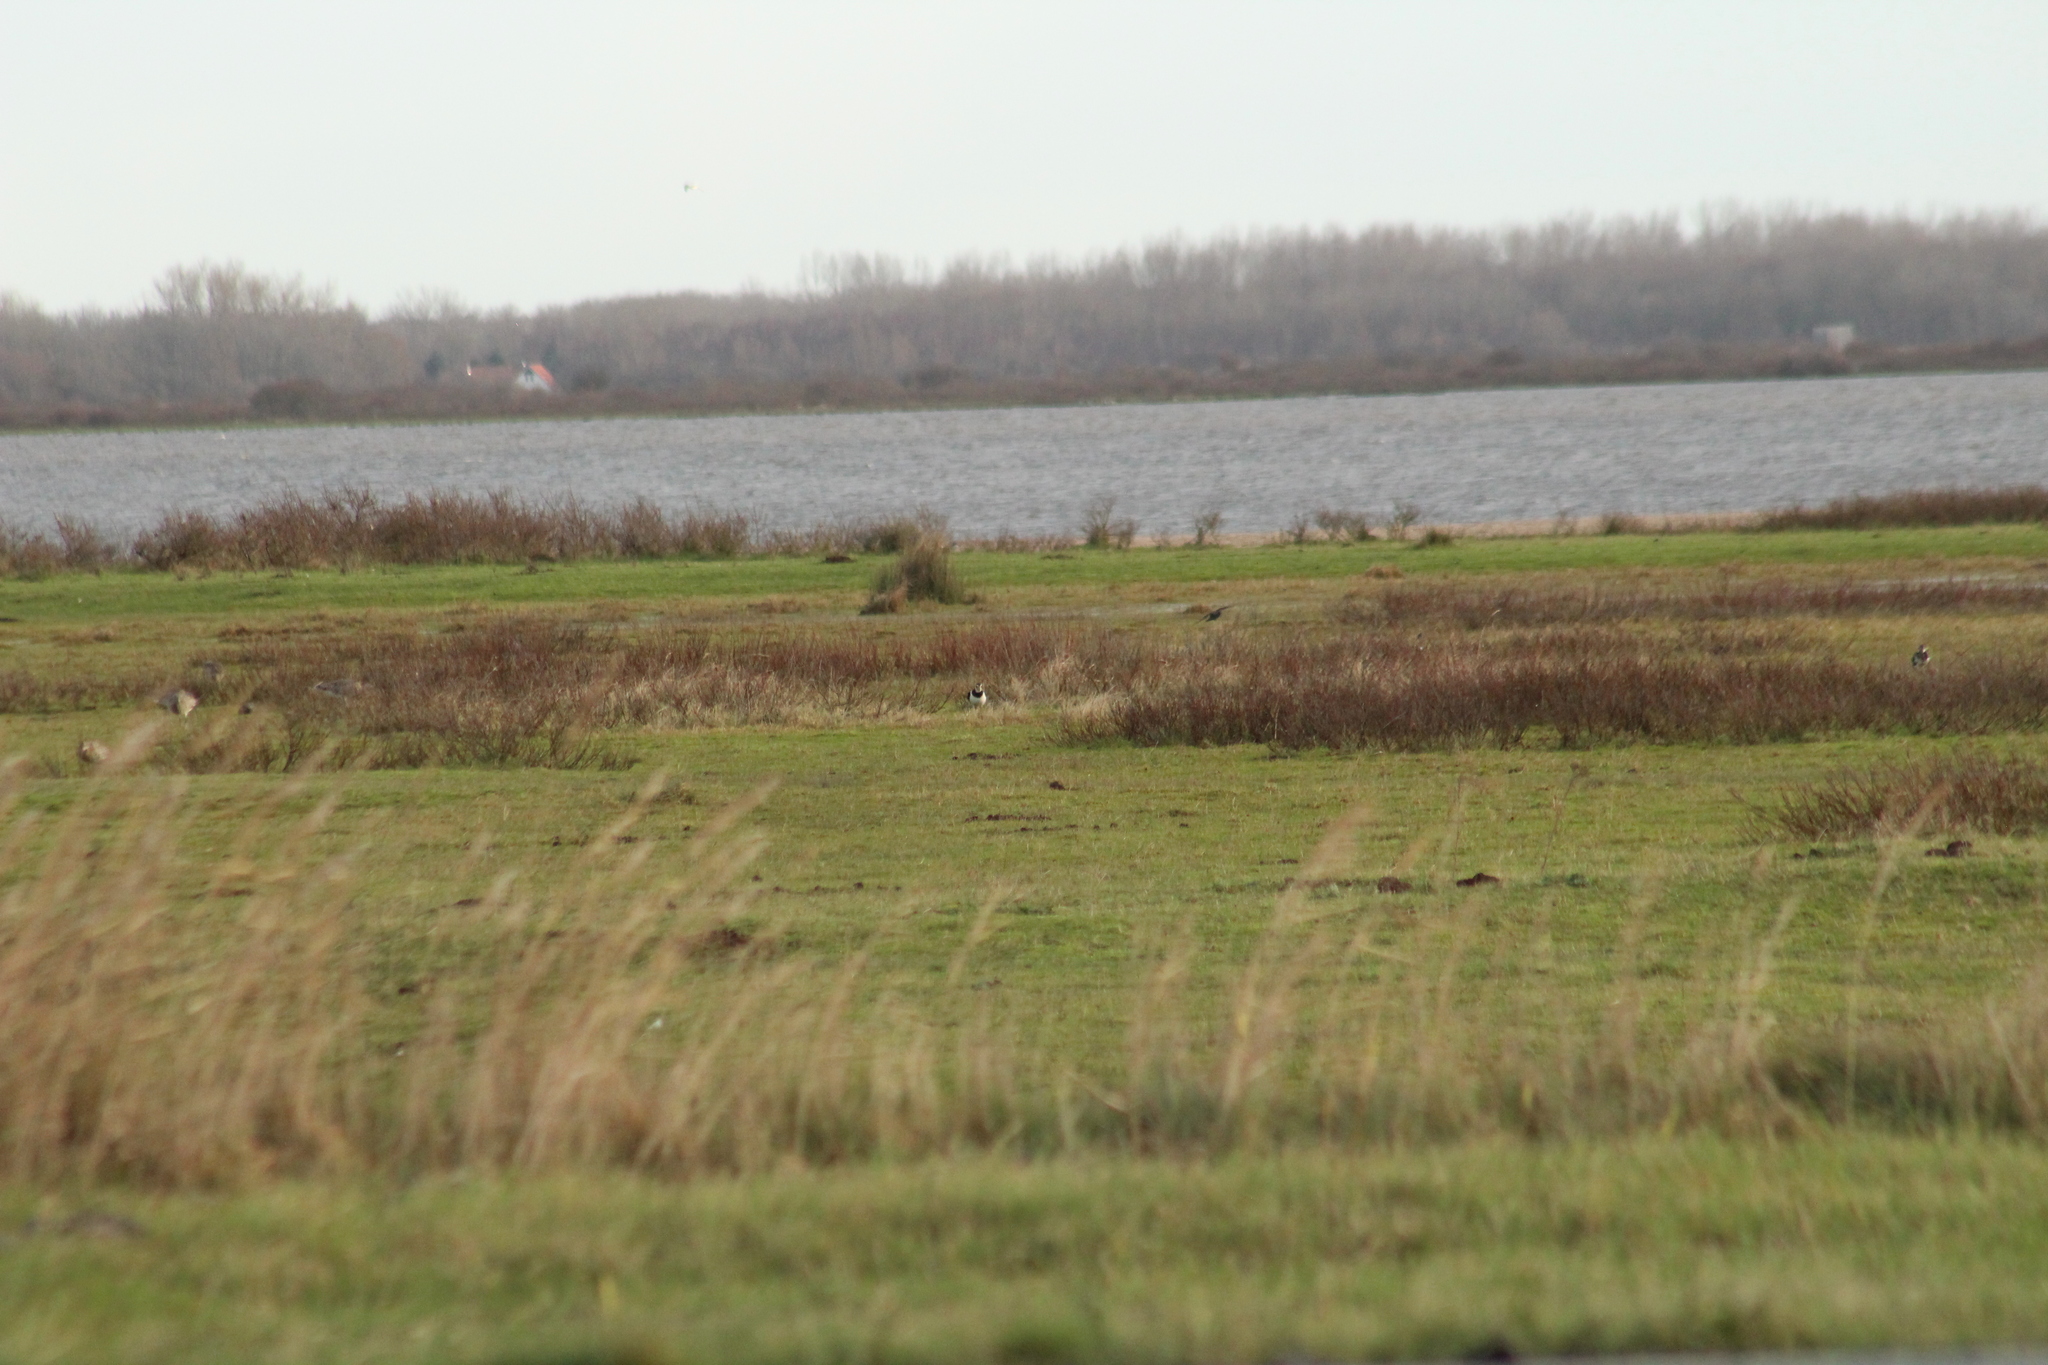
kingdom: Animalia
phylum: Chordata
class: Aves
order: Charadriiformes
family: Charadriidae
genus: Vanellus
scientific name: Vanellus vanellus
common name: Northern lapwing
